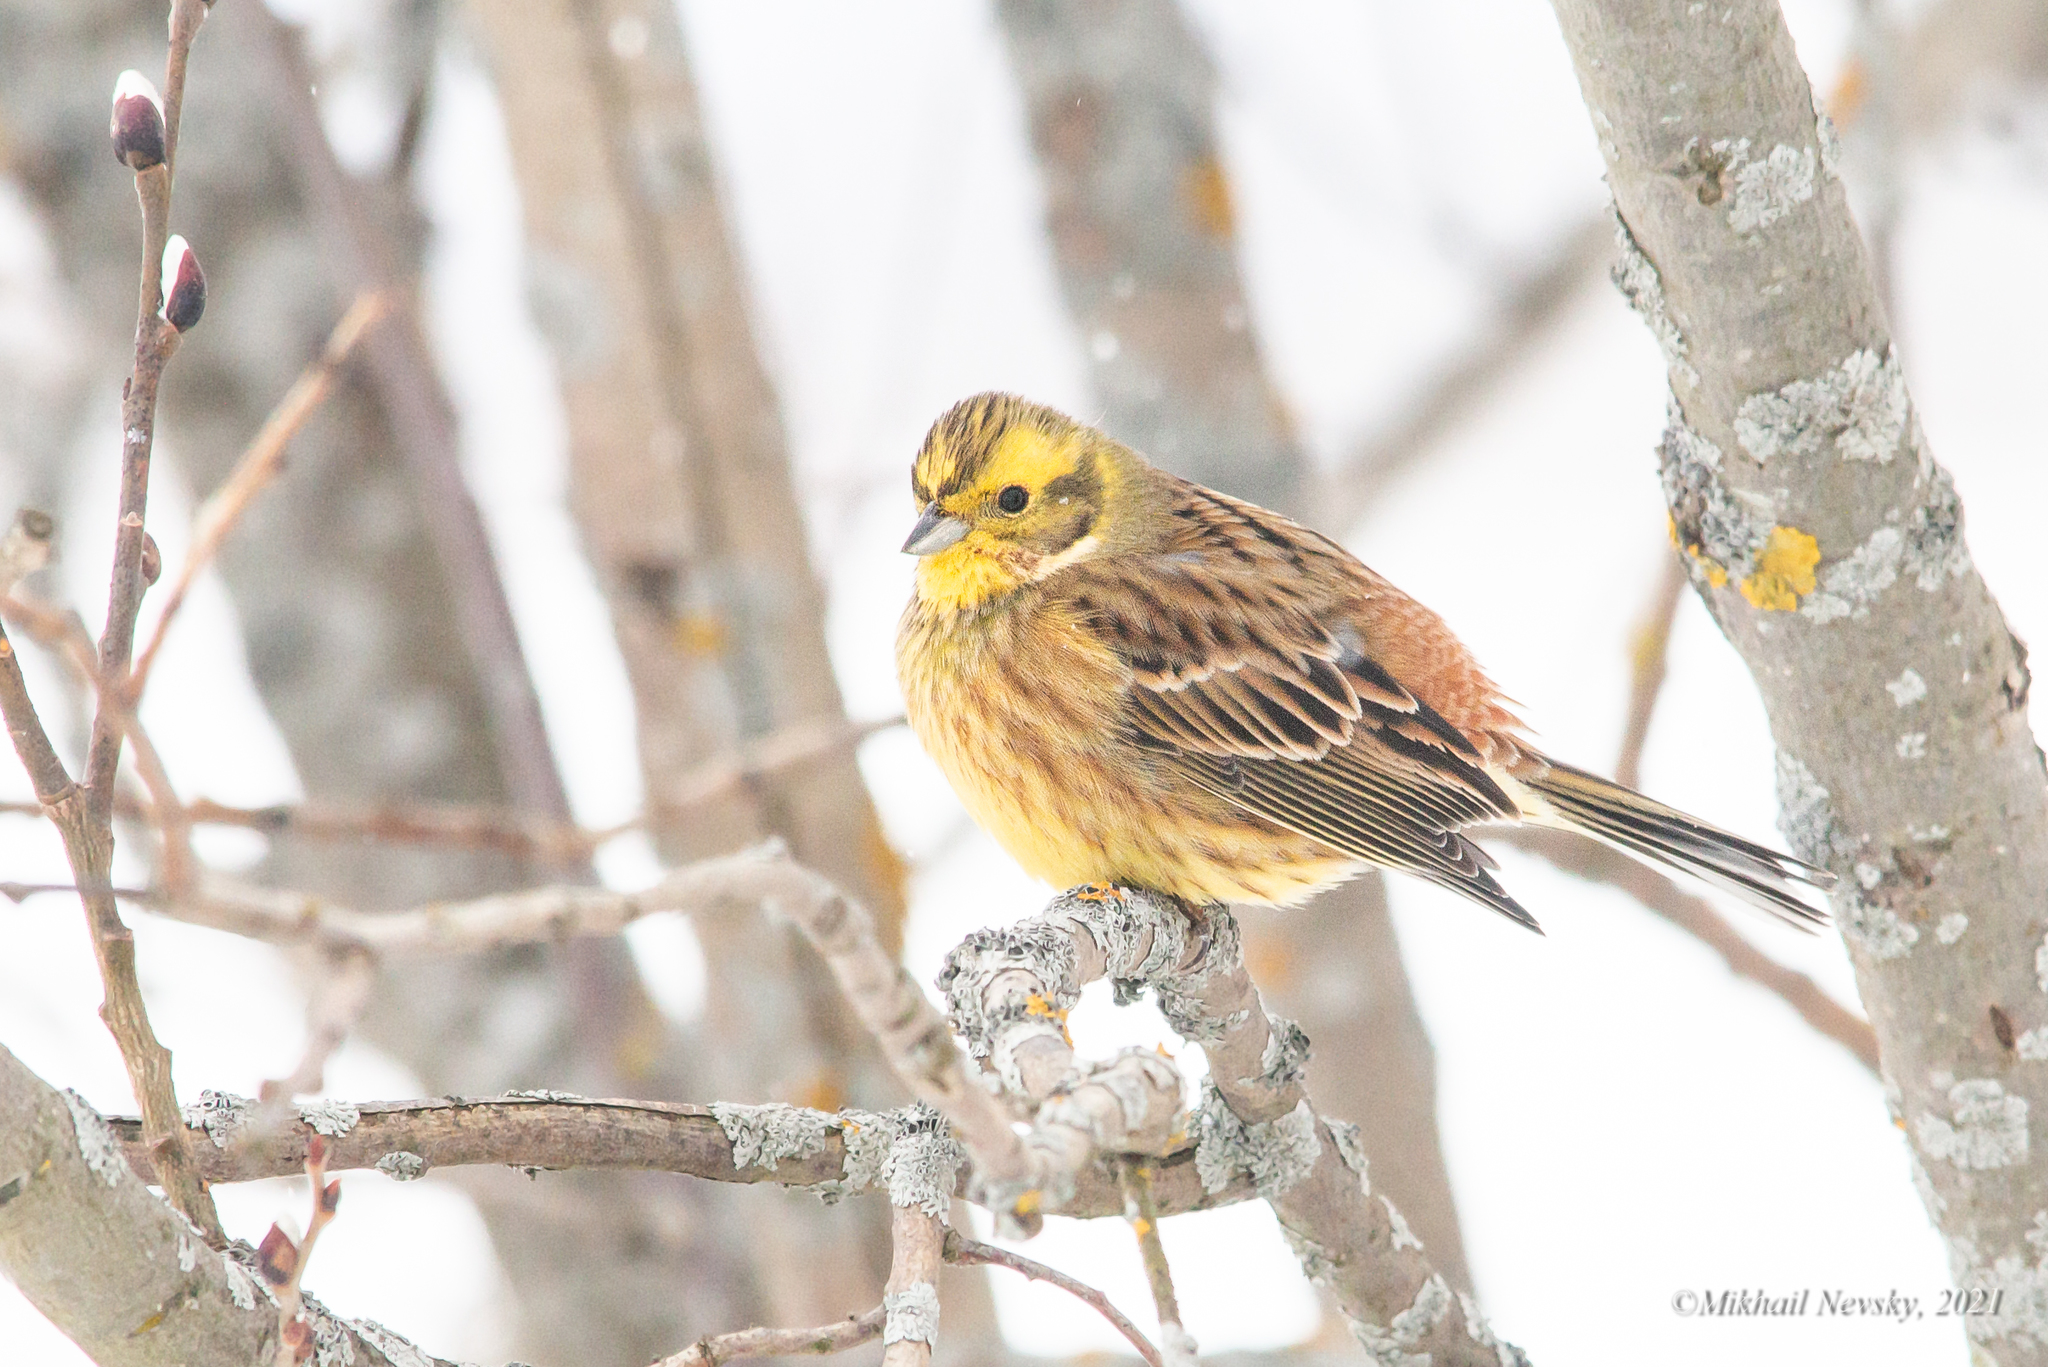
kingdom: Animalia
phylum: Chordata
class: Aves
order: Passeriformes
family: Emberizidae
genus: Emberiza
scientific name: Emberiza citrinella
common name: Yellowhammer
